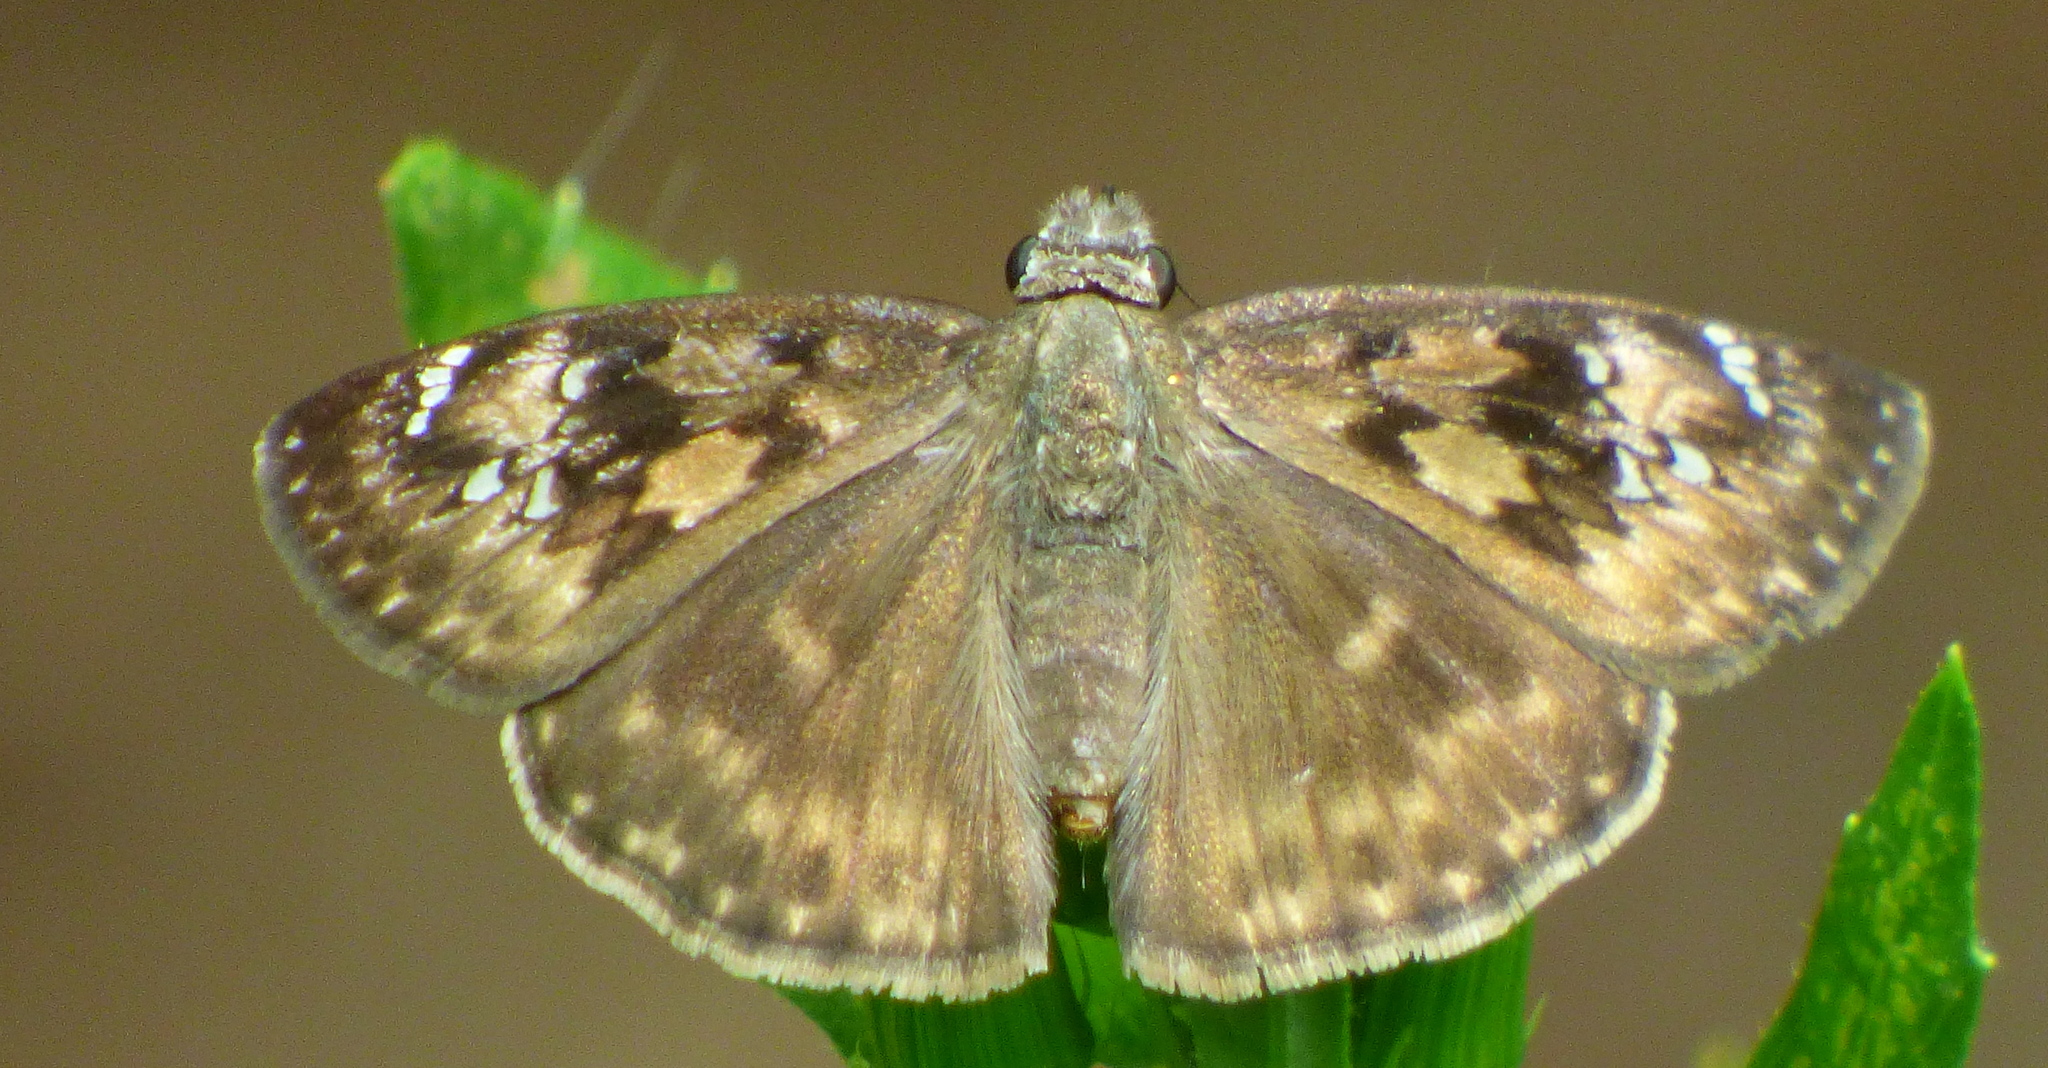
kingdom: Animalia
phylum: Arthropoda
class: Insecta
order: Lepidoptera
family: Hesperiidae
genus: Erynnis
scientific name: Erynnis horatius
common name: Horace's duskywing
